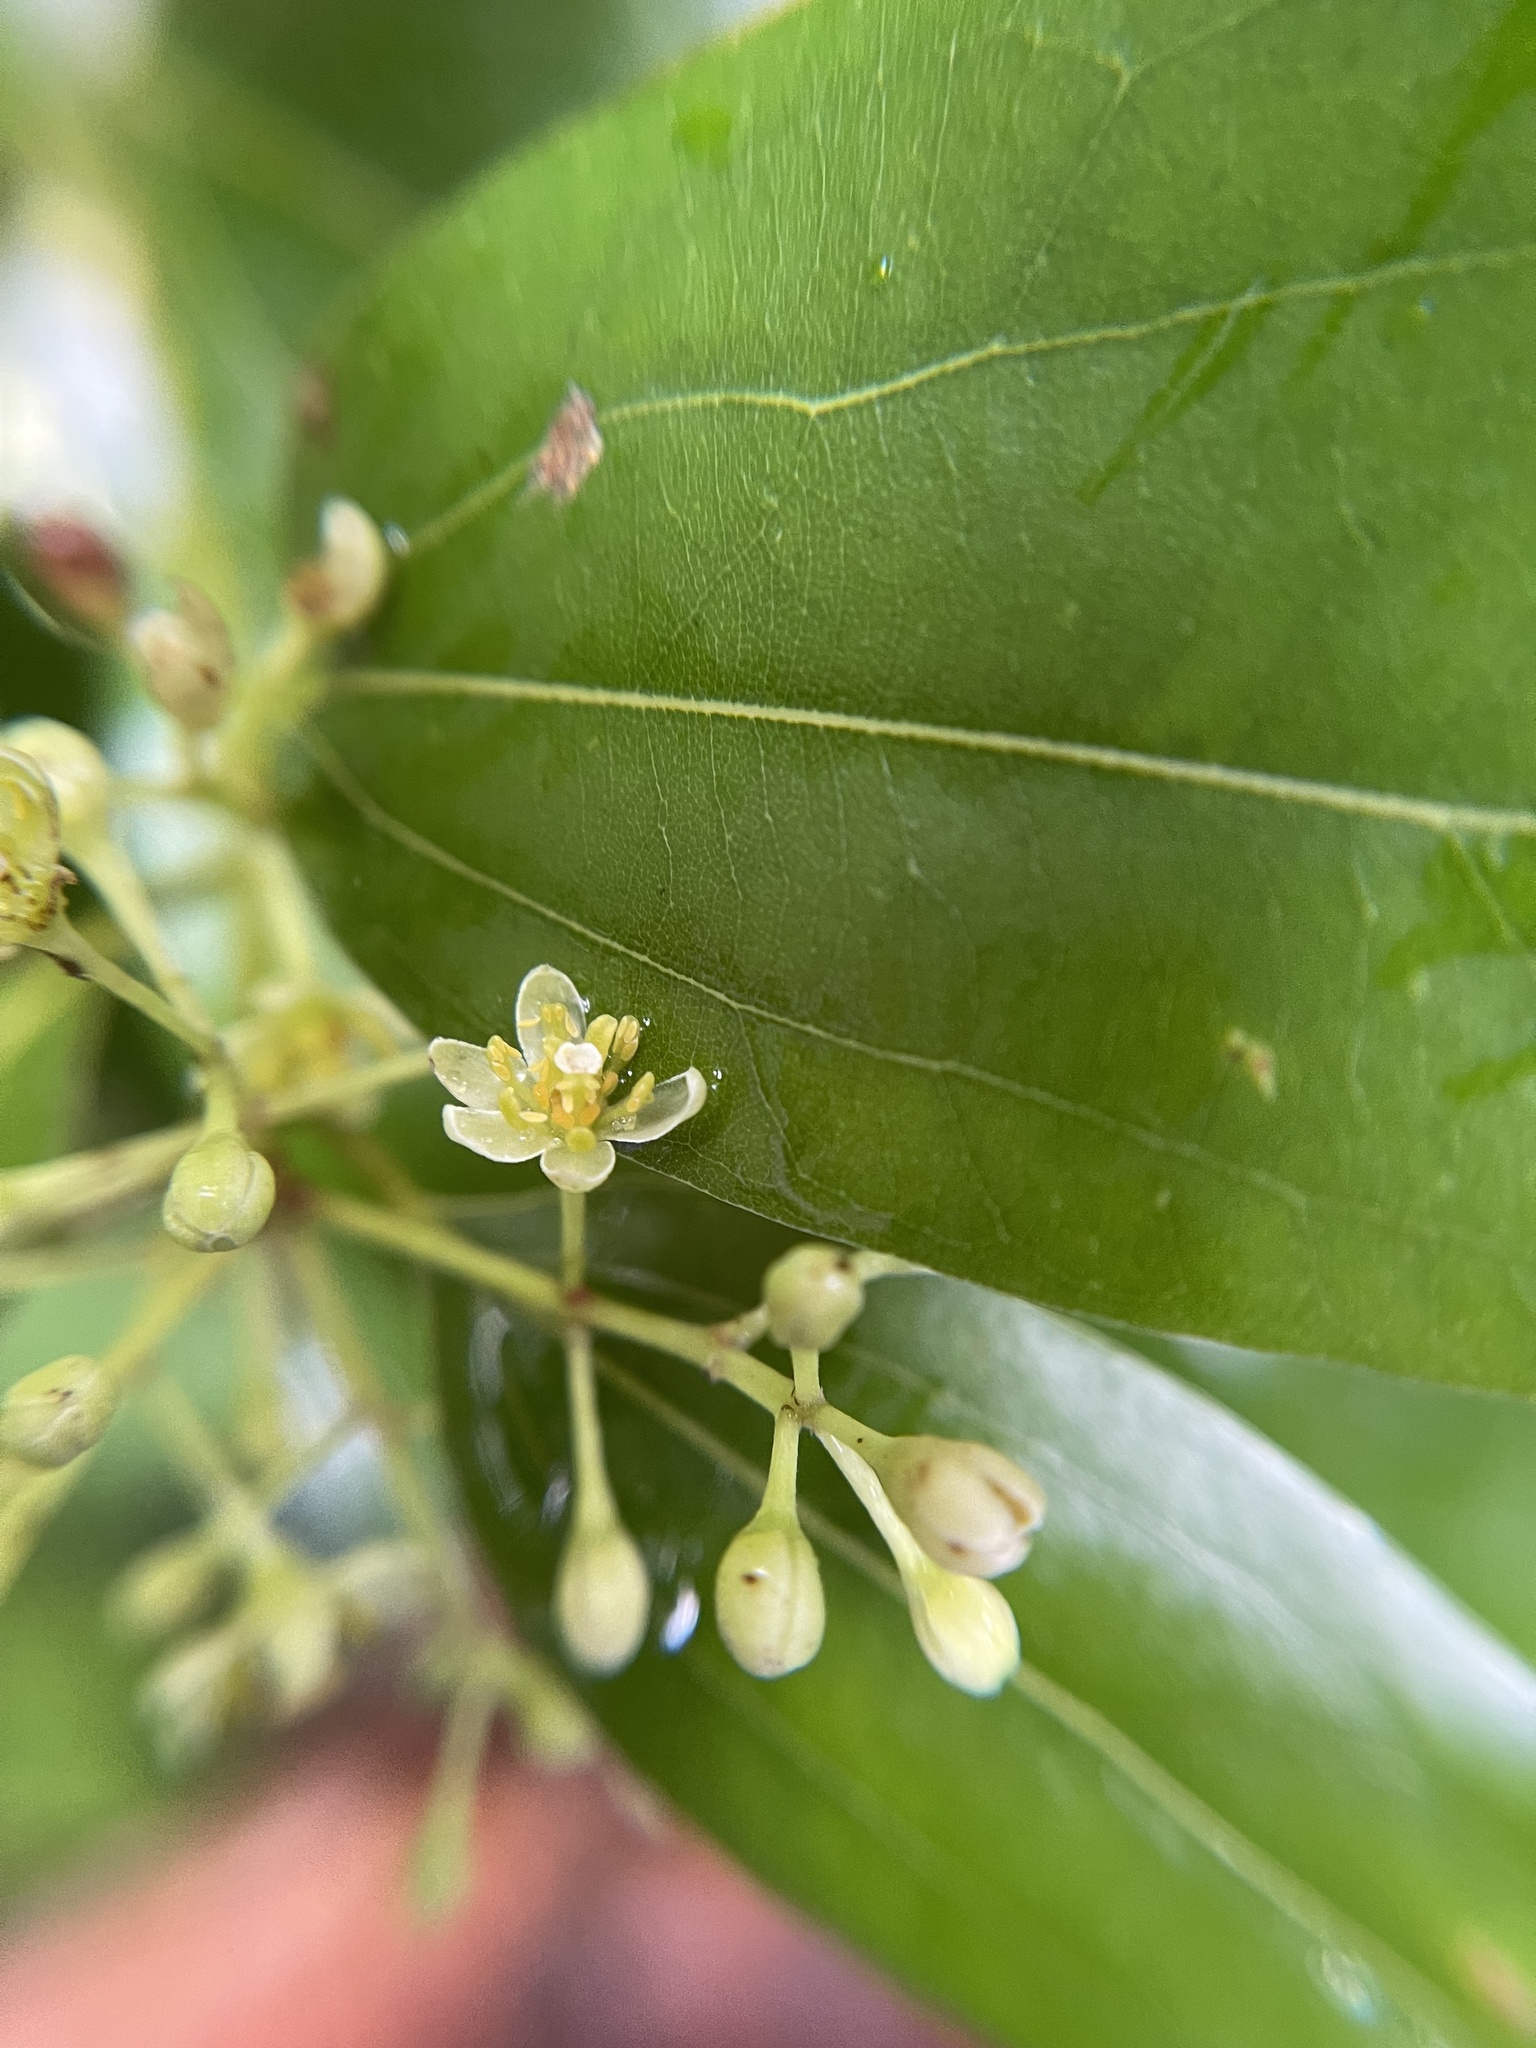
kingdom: Plantae
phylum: Tracheophyta
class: Magnoliopsida
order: Laurales
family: Lauraceae
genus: Cinnamomum
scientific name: Cinnamomum burmanni
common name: Padang cassia
